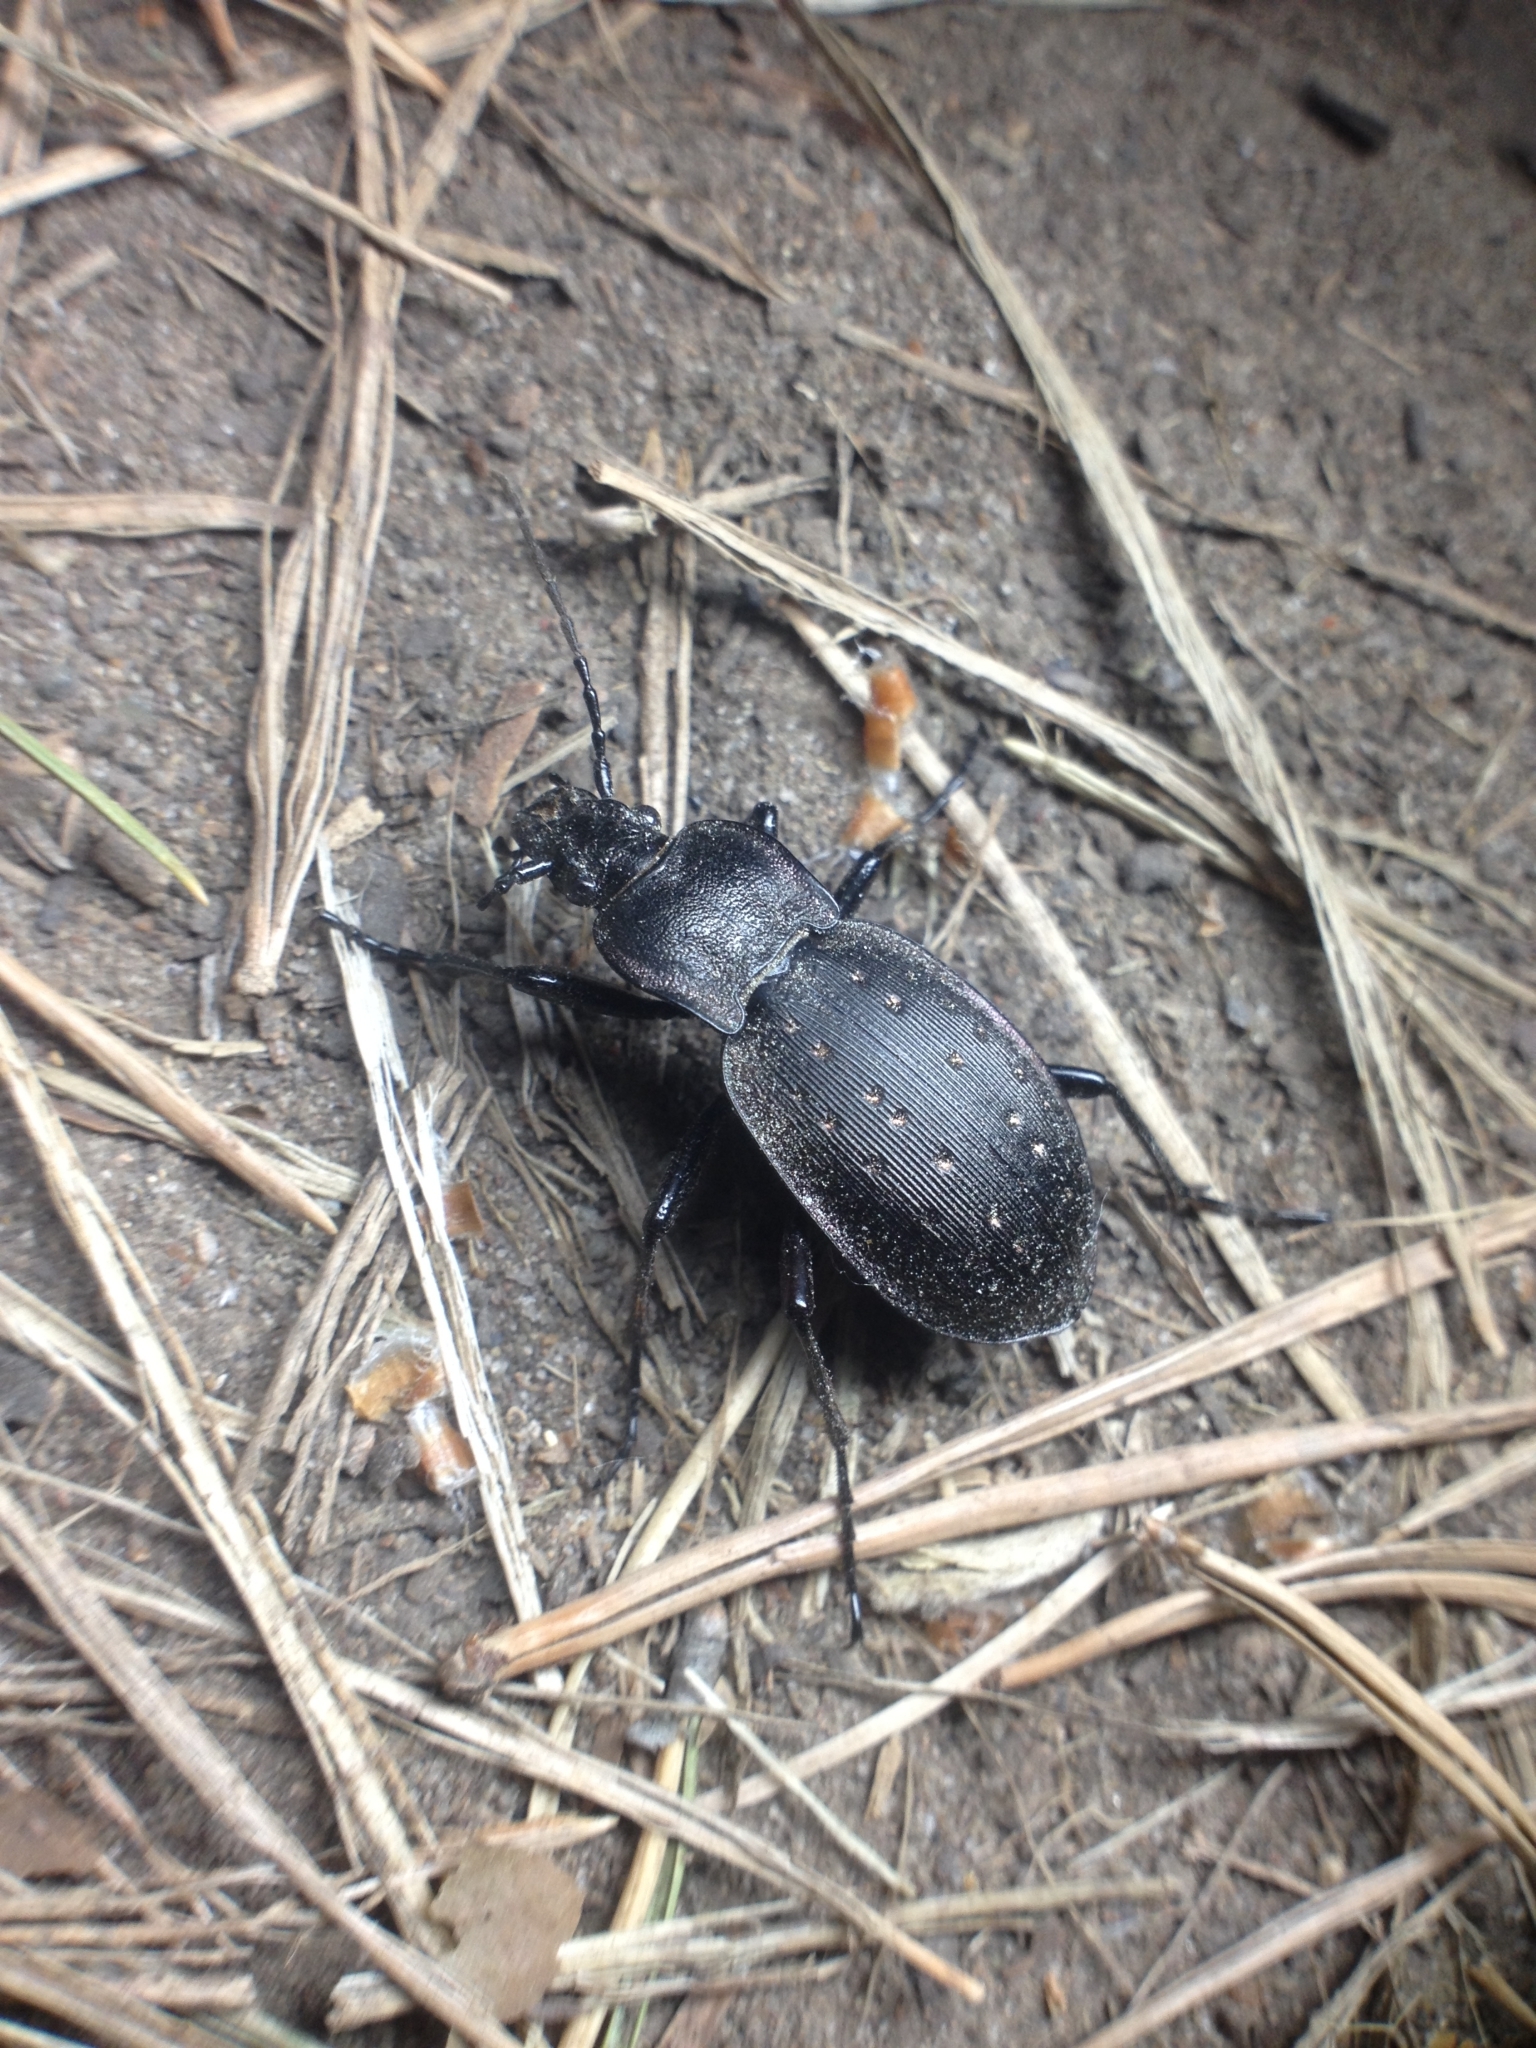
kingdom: Animalia
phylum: Arthropoda
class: Insecta
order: Coleoptera
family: Carabidae
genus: Carabus
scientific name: Carabus hortensis
